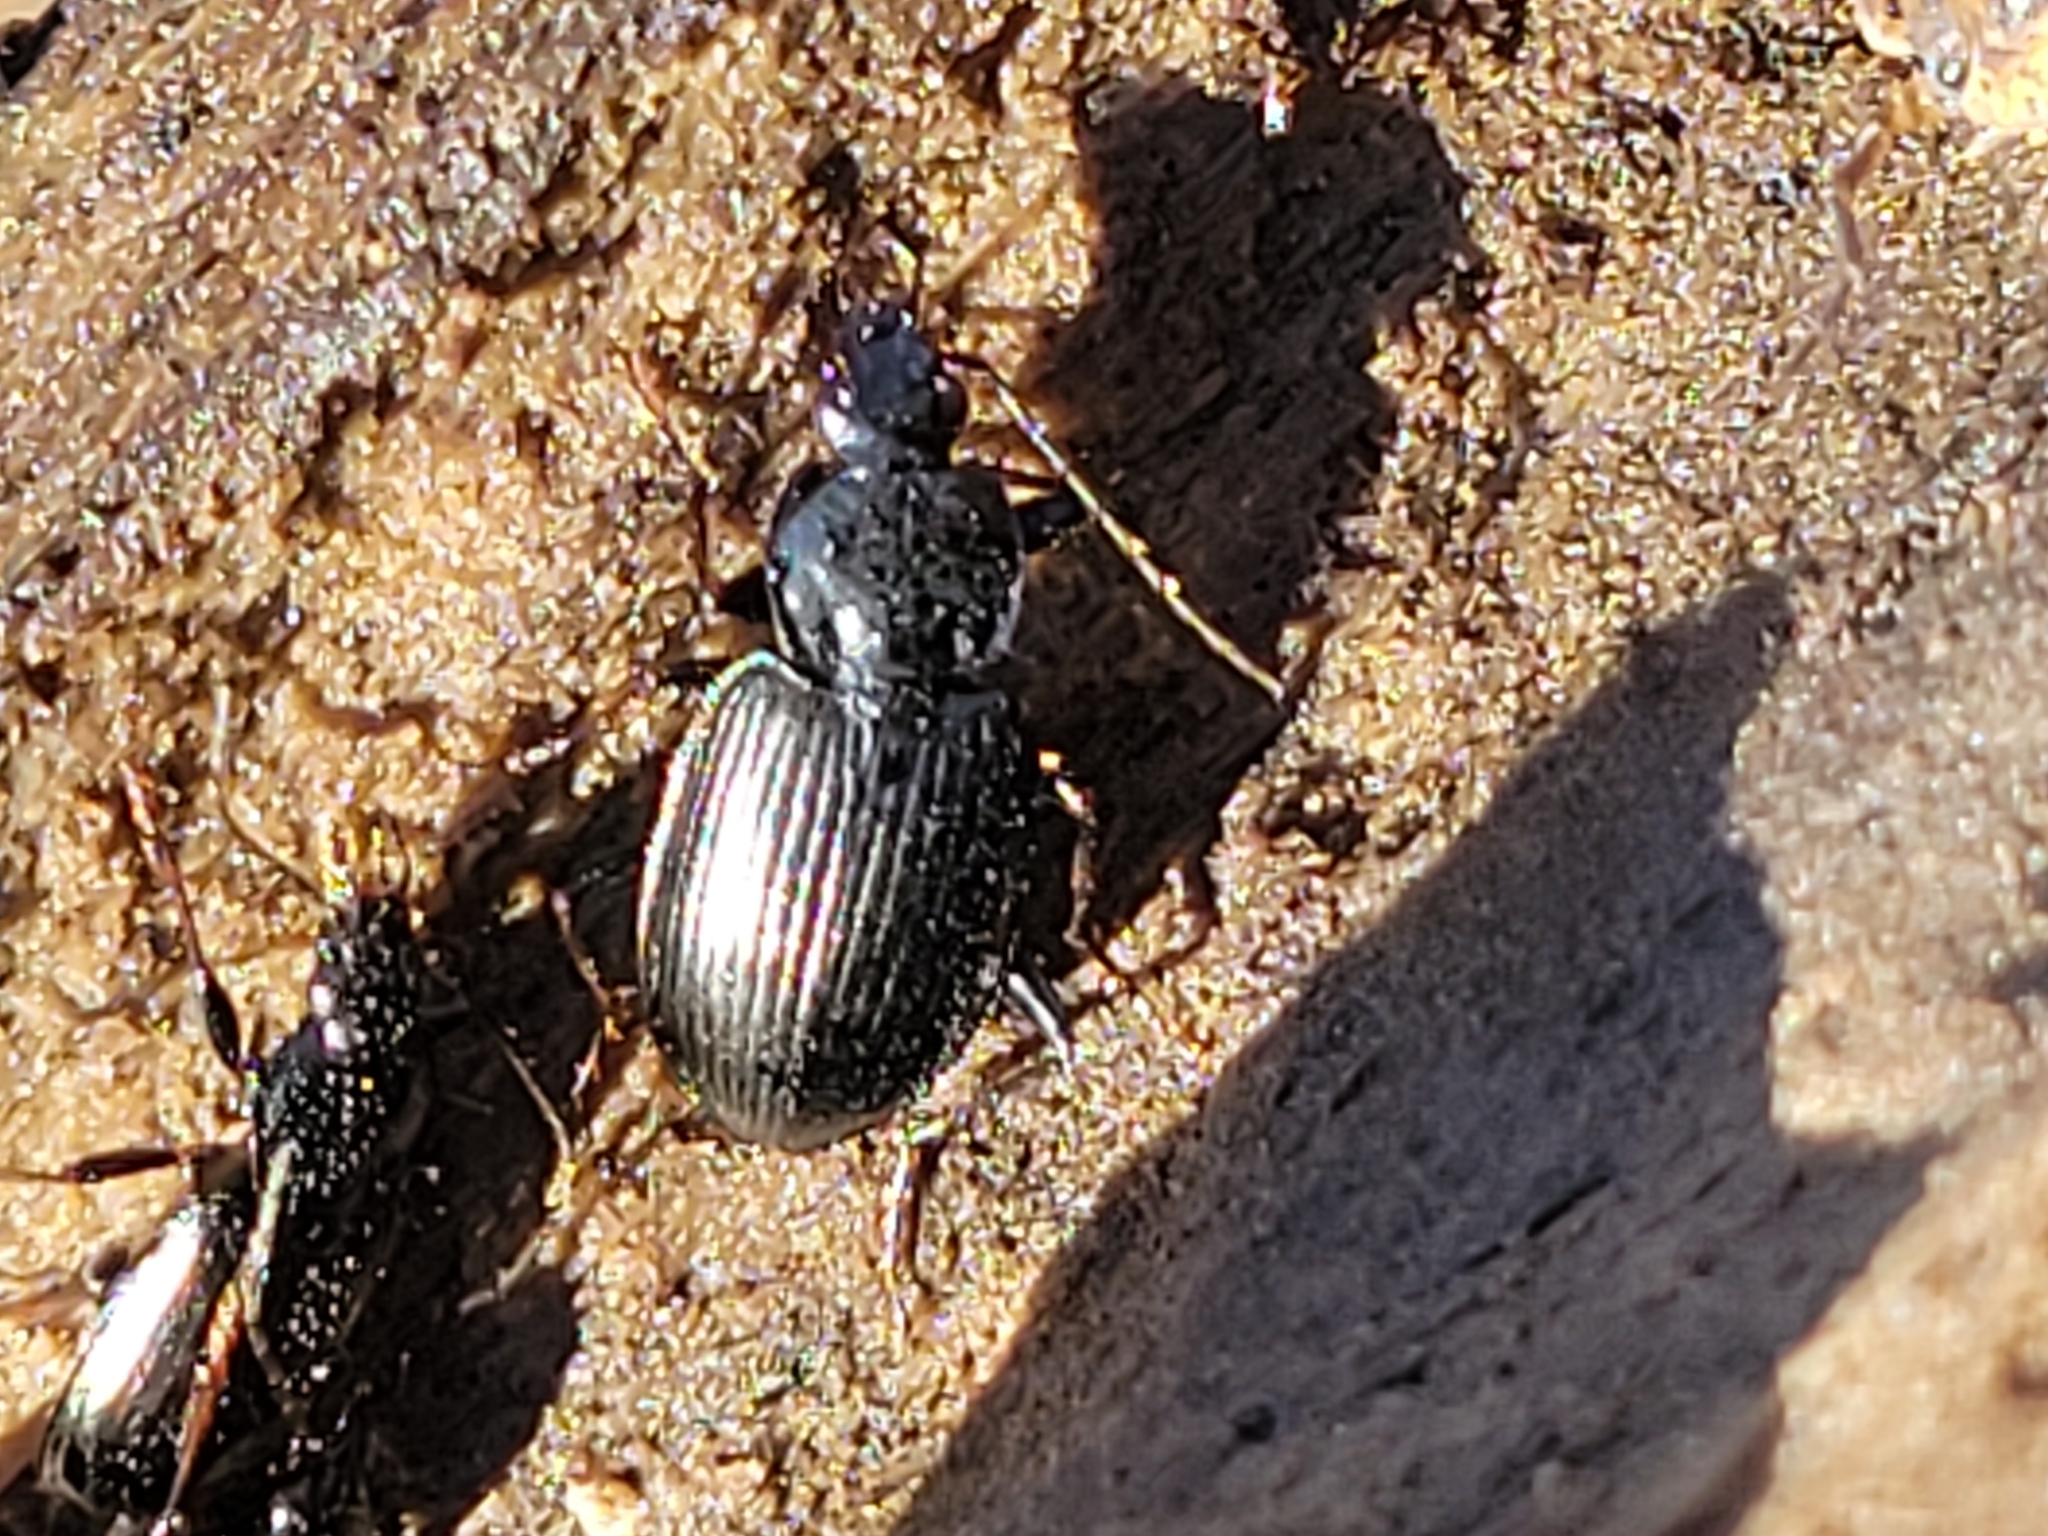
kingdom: Animalia
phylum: Arthropoda
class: Insecta
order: Coleoptera
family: Carabidae
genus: Agonum
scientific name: Agonum
